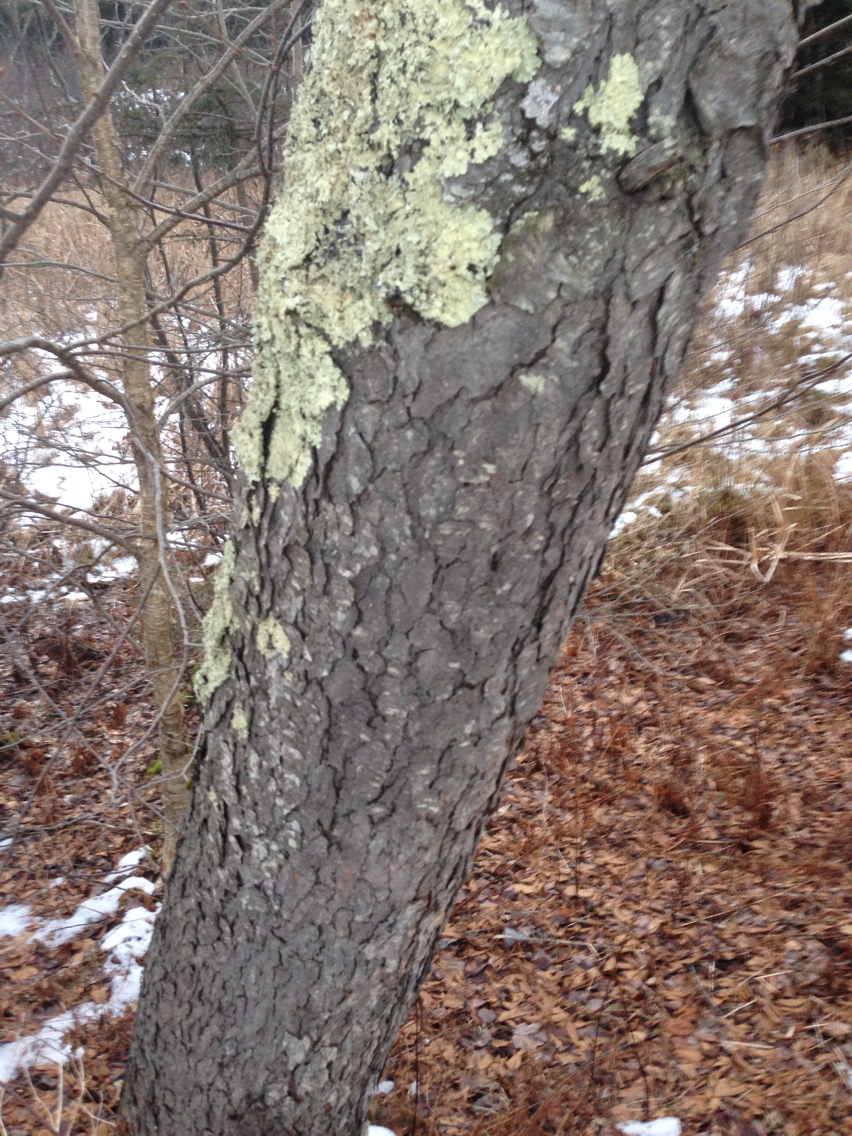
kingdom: Plantae
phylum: Tracheophyta
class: Magnoliopsida
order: Rosales
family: Rosaceae
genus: Prunus
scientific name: Prunus serotina
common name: Black cherry
